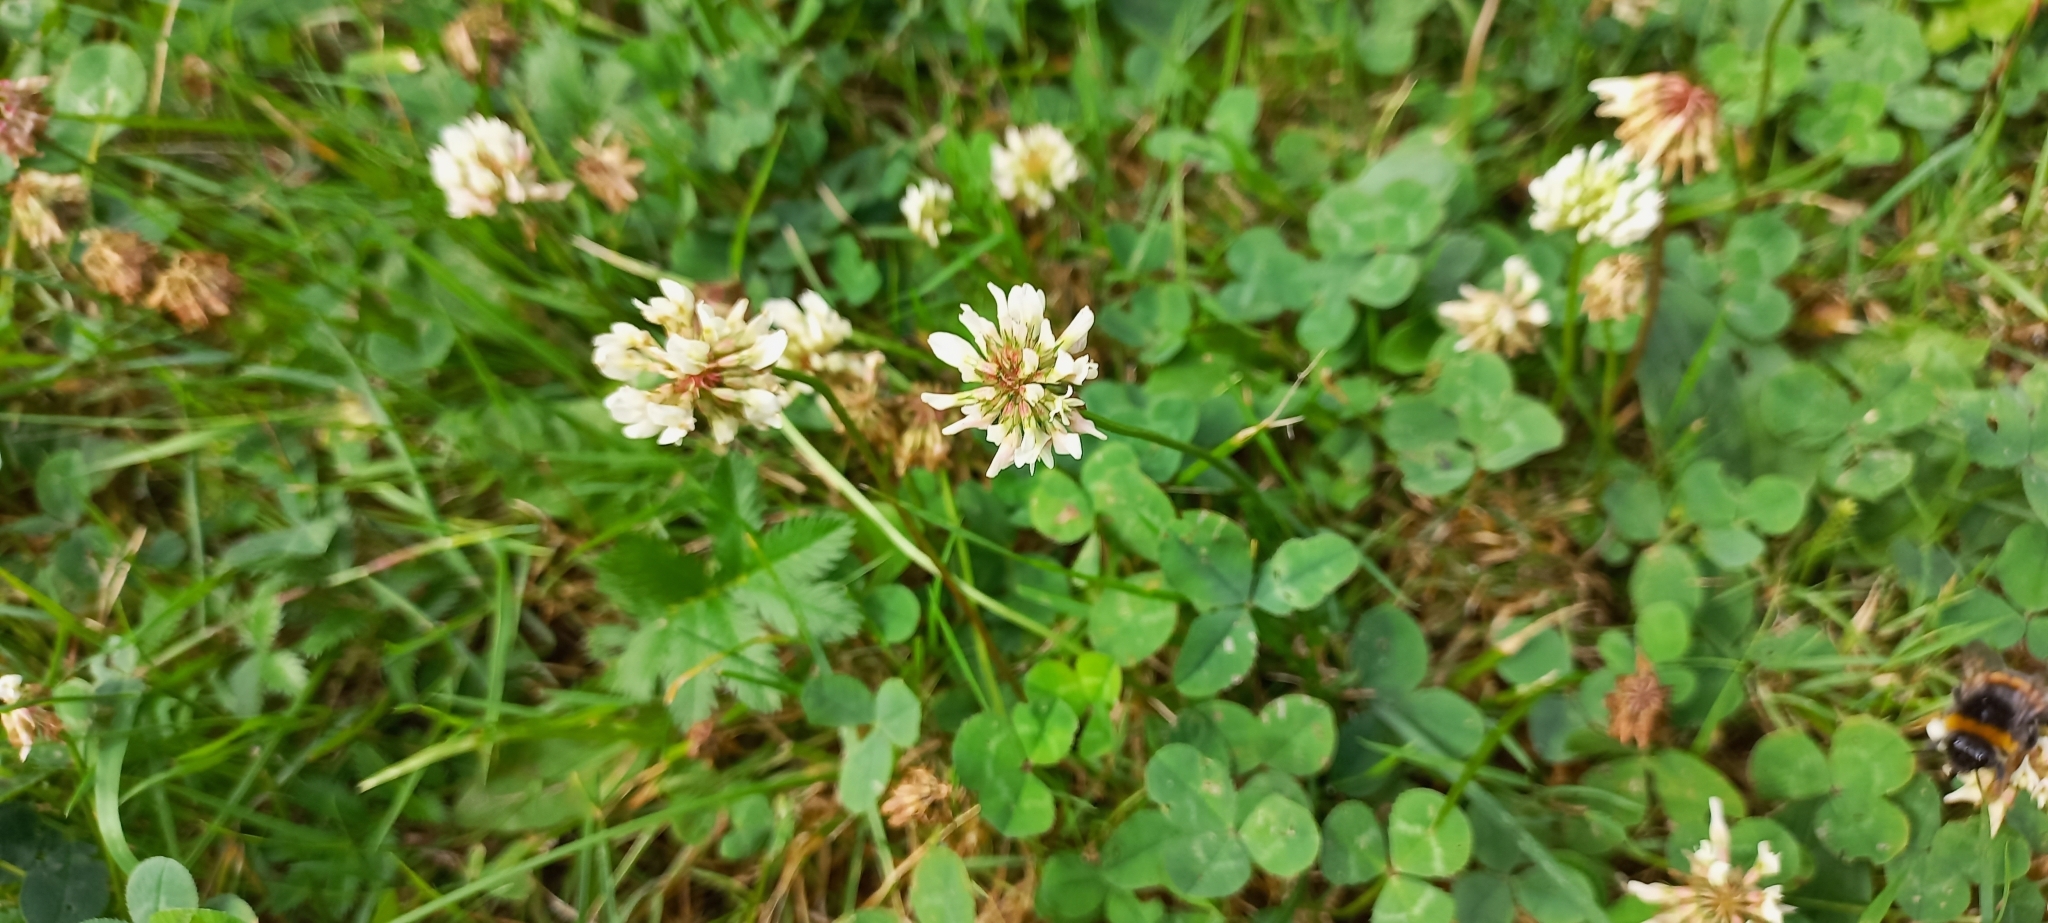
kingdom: Plantae
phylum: Tracheophyta
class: Magnoliopsida
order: Fabales
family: Fabaceae
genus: Trifolium
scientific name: Trifolium repens
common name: White clover
